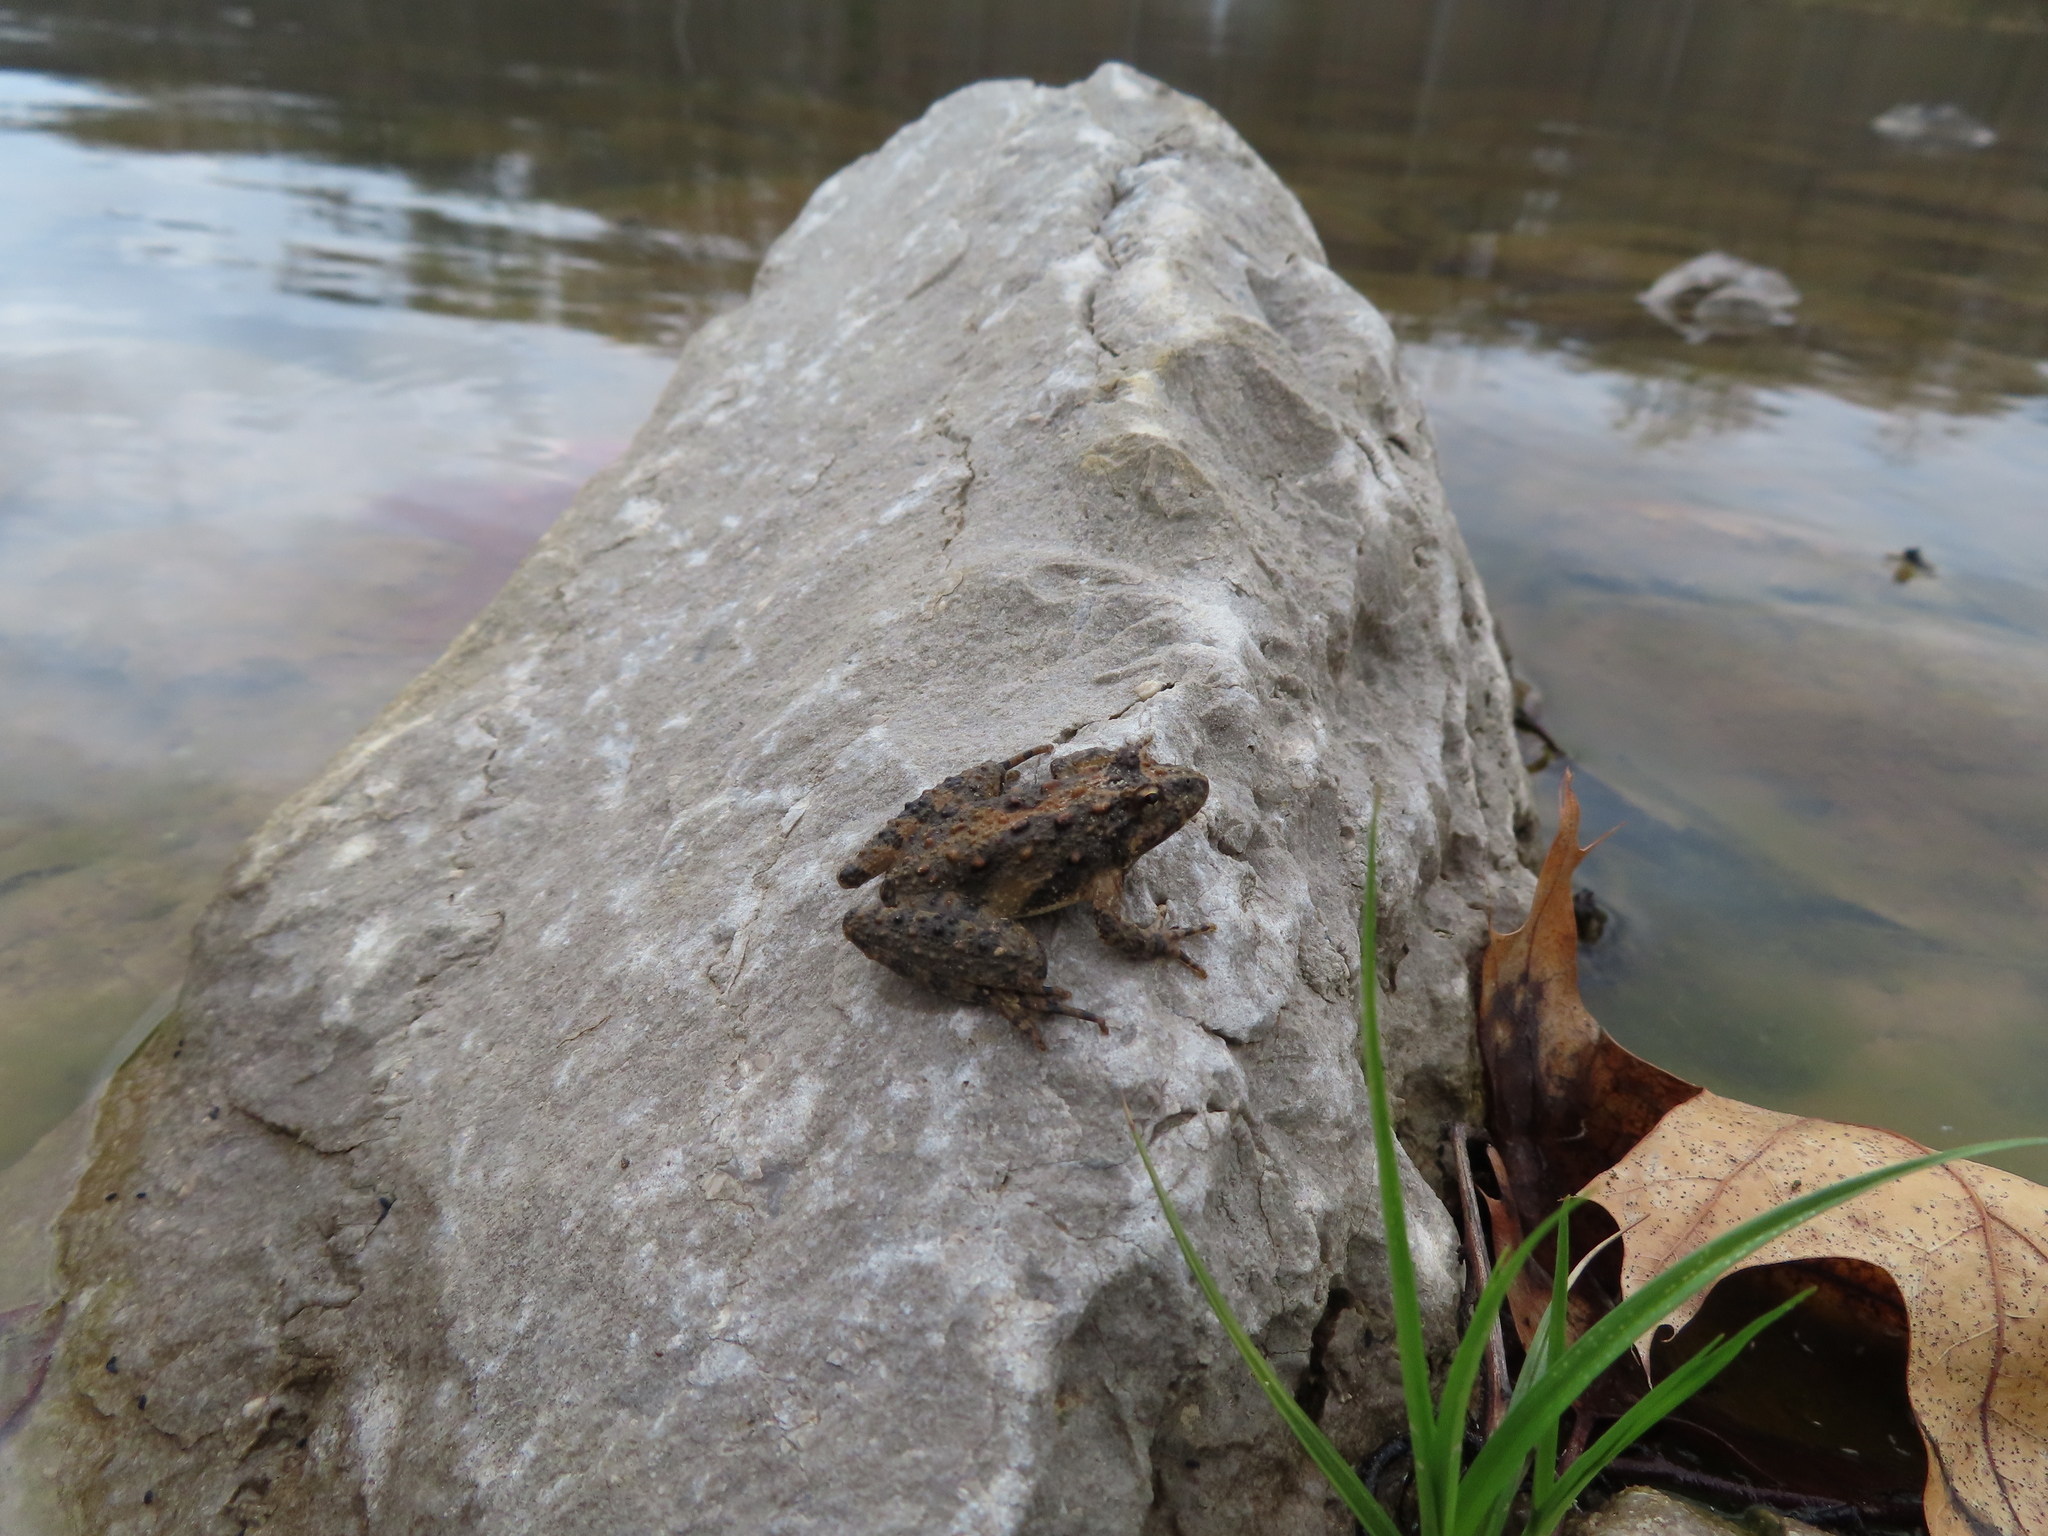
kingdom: Animalia
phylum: Chordata
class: Amphibia
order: Anura
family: Hylidae
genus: Acris
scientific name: Acris blanchardi
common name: Blanchard's cricket frog
